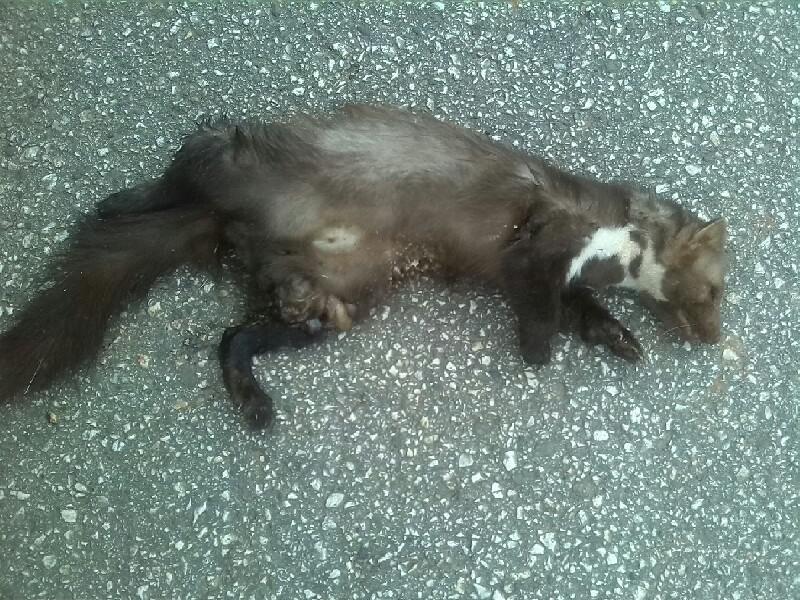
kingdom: Animalia
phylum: Chordata
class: Mammalia
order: Carnivora
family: Mustelidae
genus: Martes
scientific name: Martes foina
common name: Beech marten
